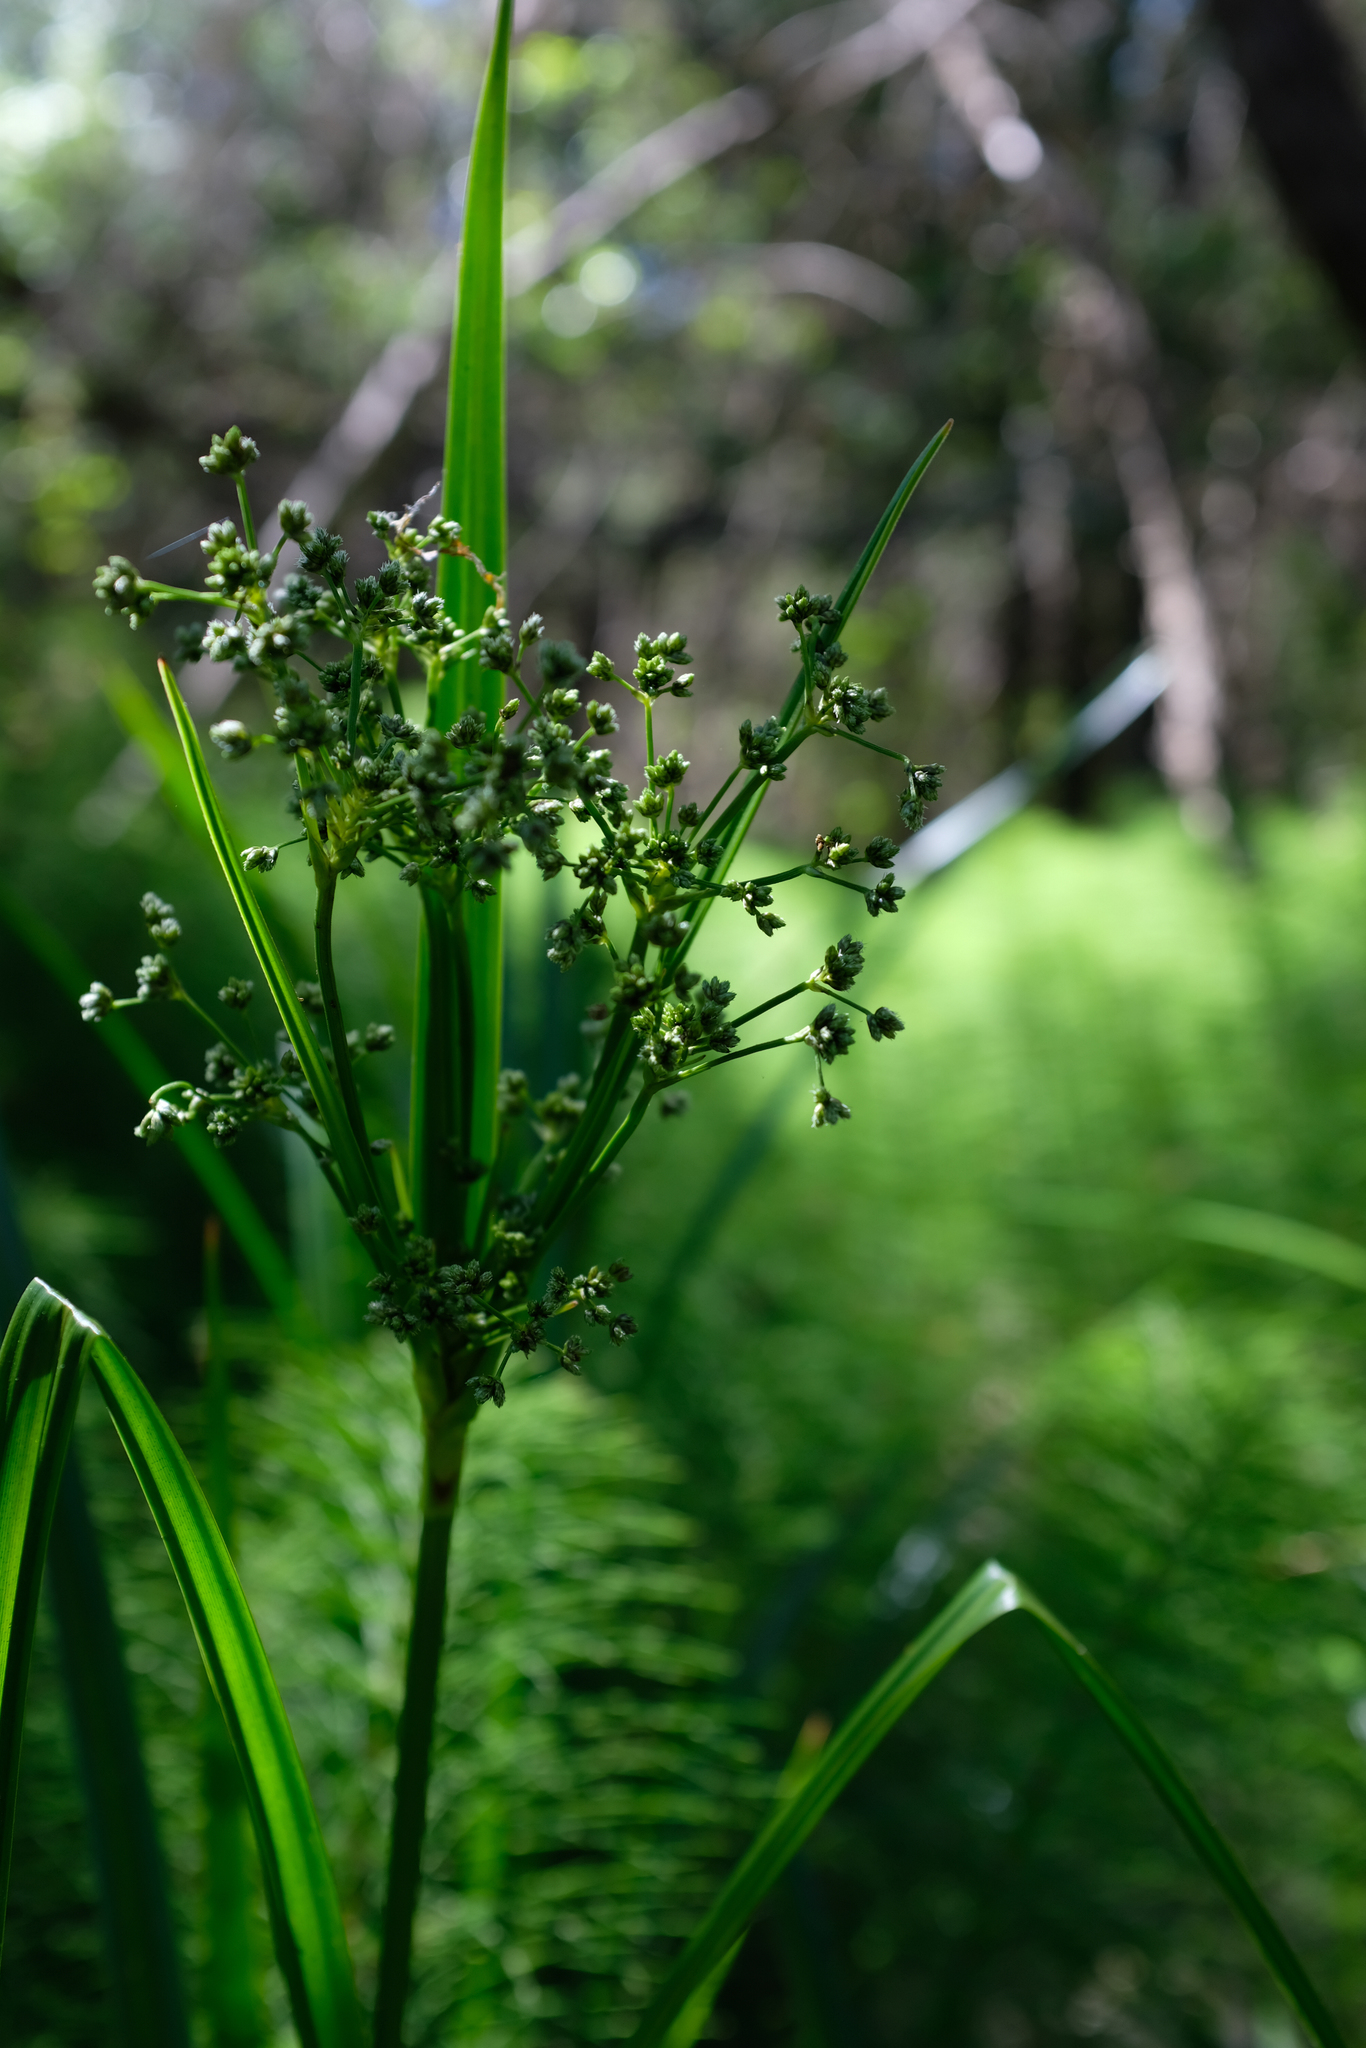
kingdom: Plantae
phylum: Tracheophyta
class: Liliopsida
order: Poales
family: Cyperaceae
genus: Scirpus
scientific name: Scirpus microcarpus
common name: Panicled bulrush
